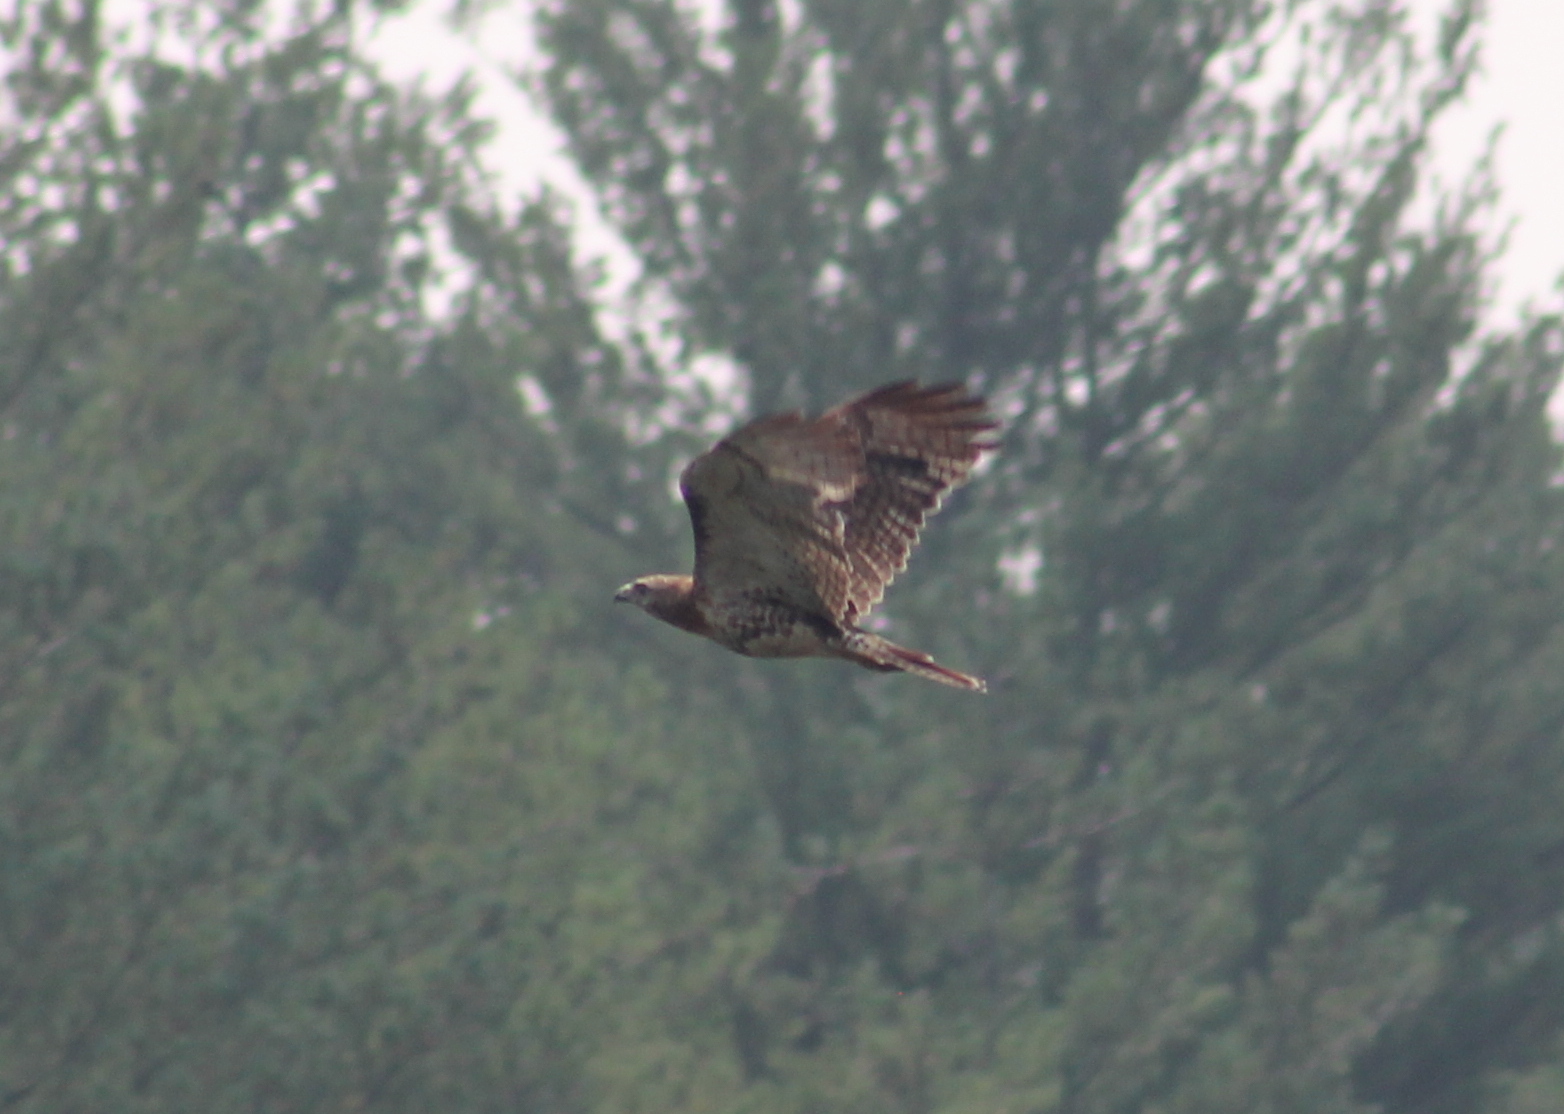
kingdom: Animalia
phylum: Chordata
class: Aves
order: Accipitriformes
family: Accipitridae
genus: Buteo
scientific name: Buteo jamaicensis
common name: Red-tailed hawk
